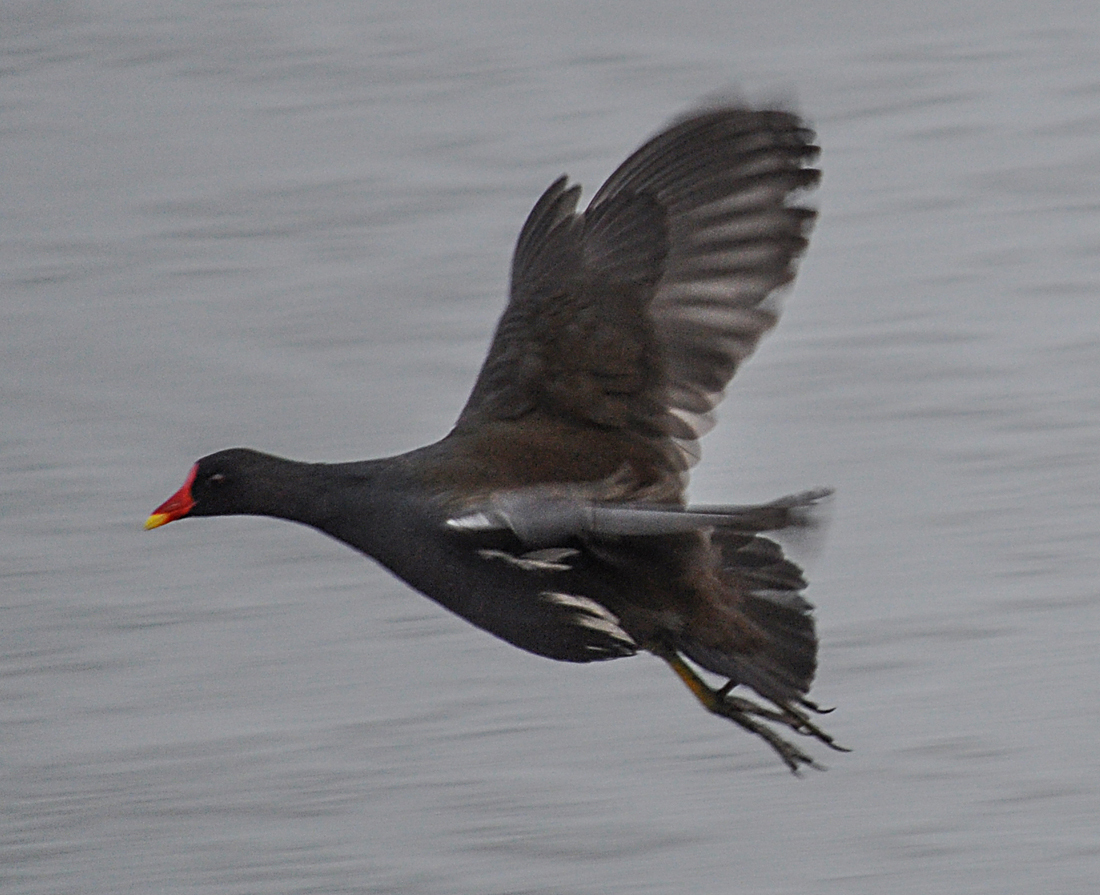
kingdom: Animalia
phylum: Chordata
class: Aves
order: Gruiformes
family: Rallidae
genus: Gallinula
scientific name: Gallinula chloropus
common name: Common moorhen
